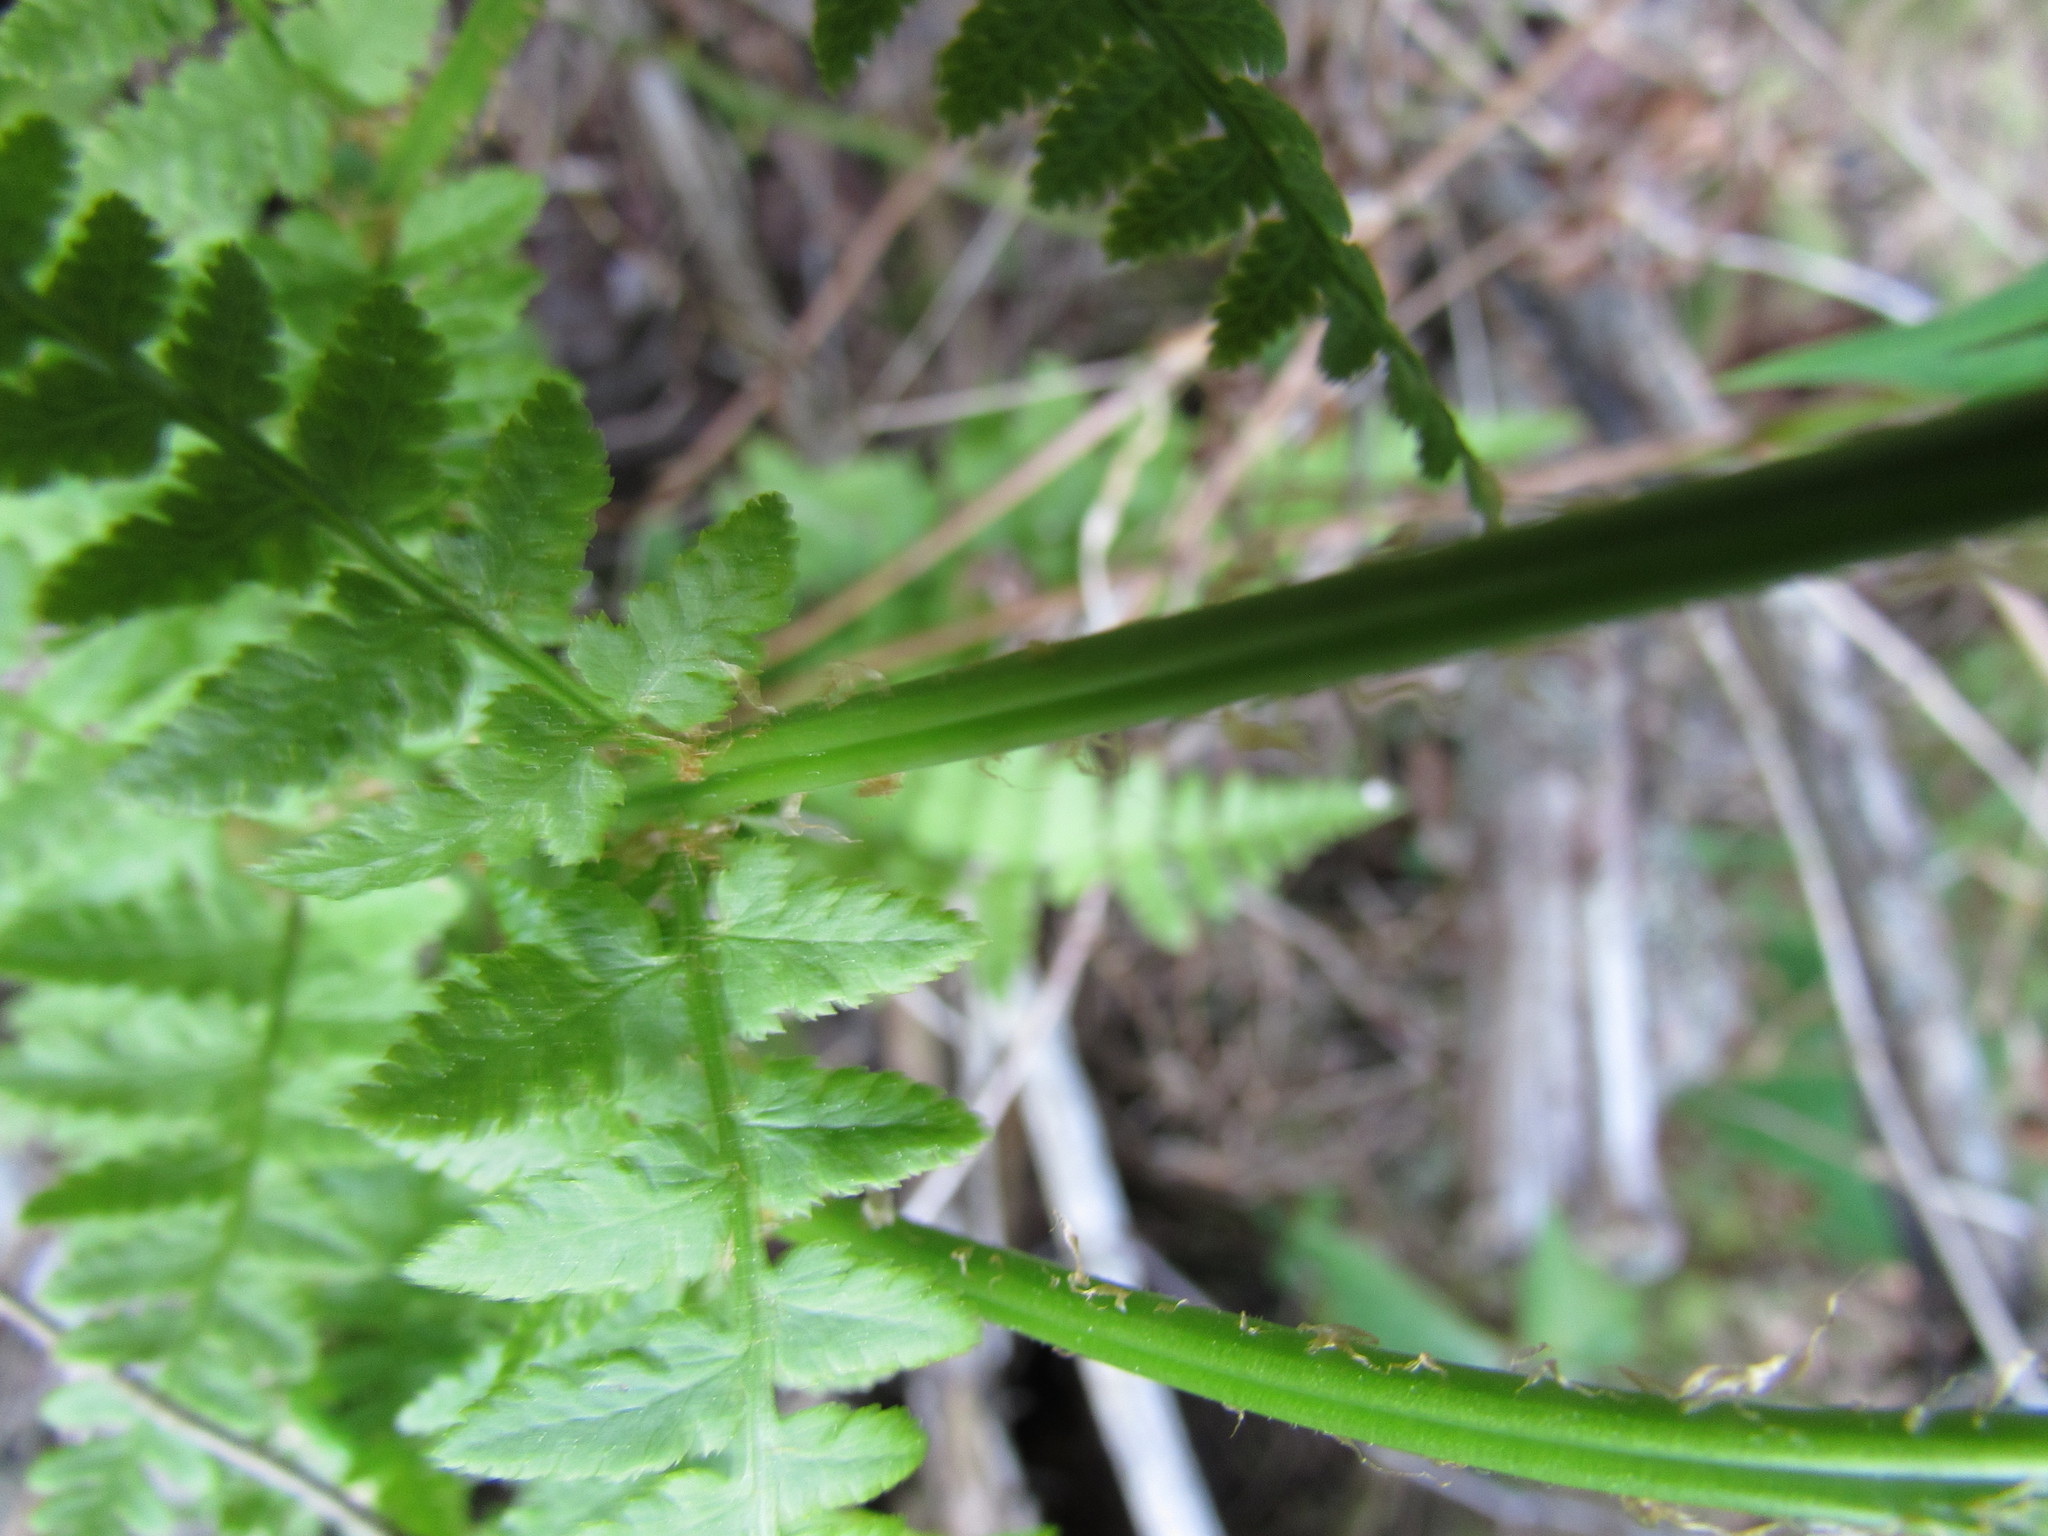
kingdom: Plantae
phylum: Tracheophyta
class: Polypodiopsida
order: Polypodiales
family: Dryopteridaceae
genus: Dryopteris
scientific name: Dryopteris boottii
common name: Boott's fern
